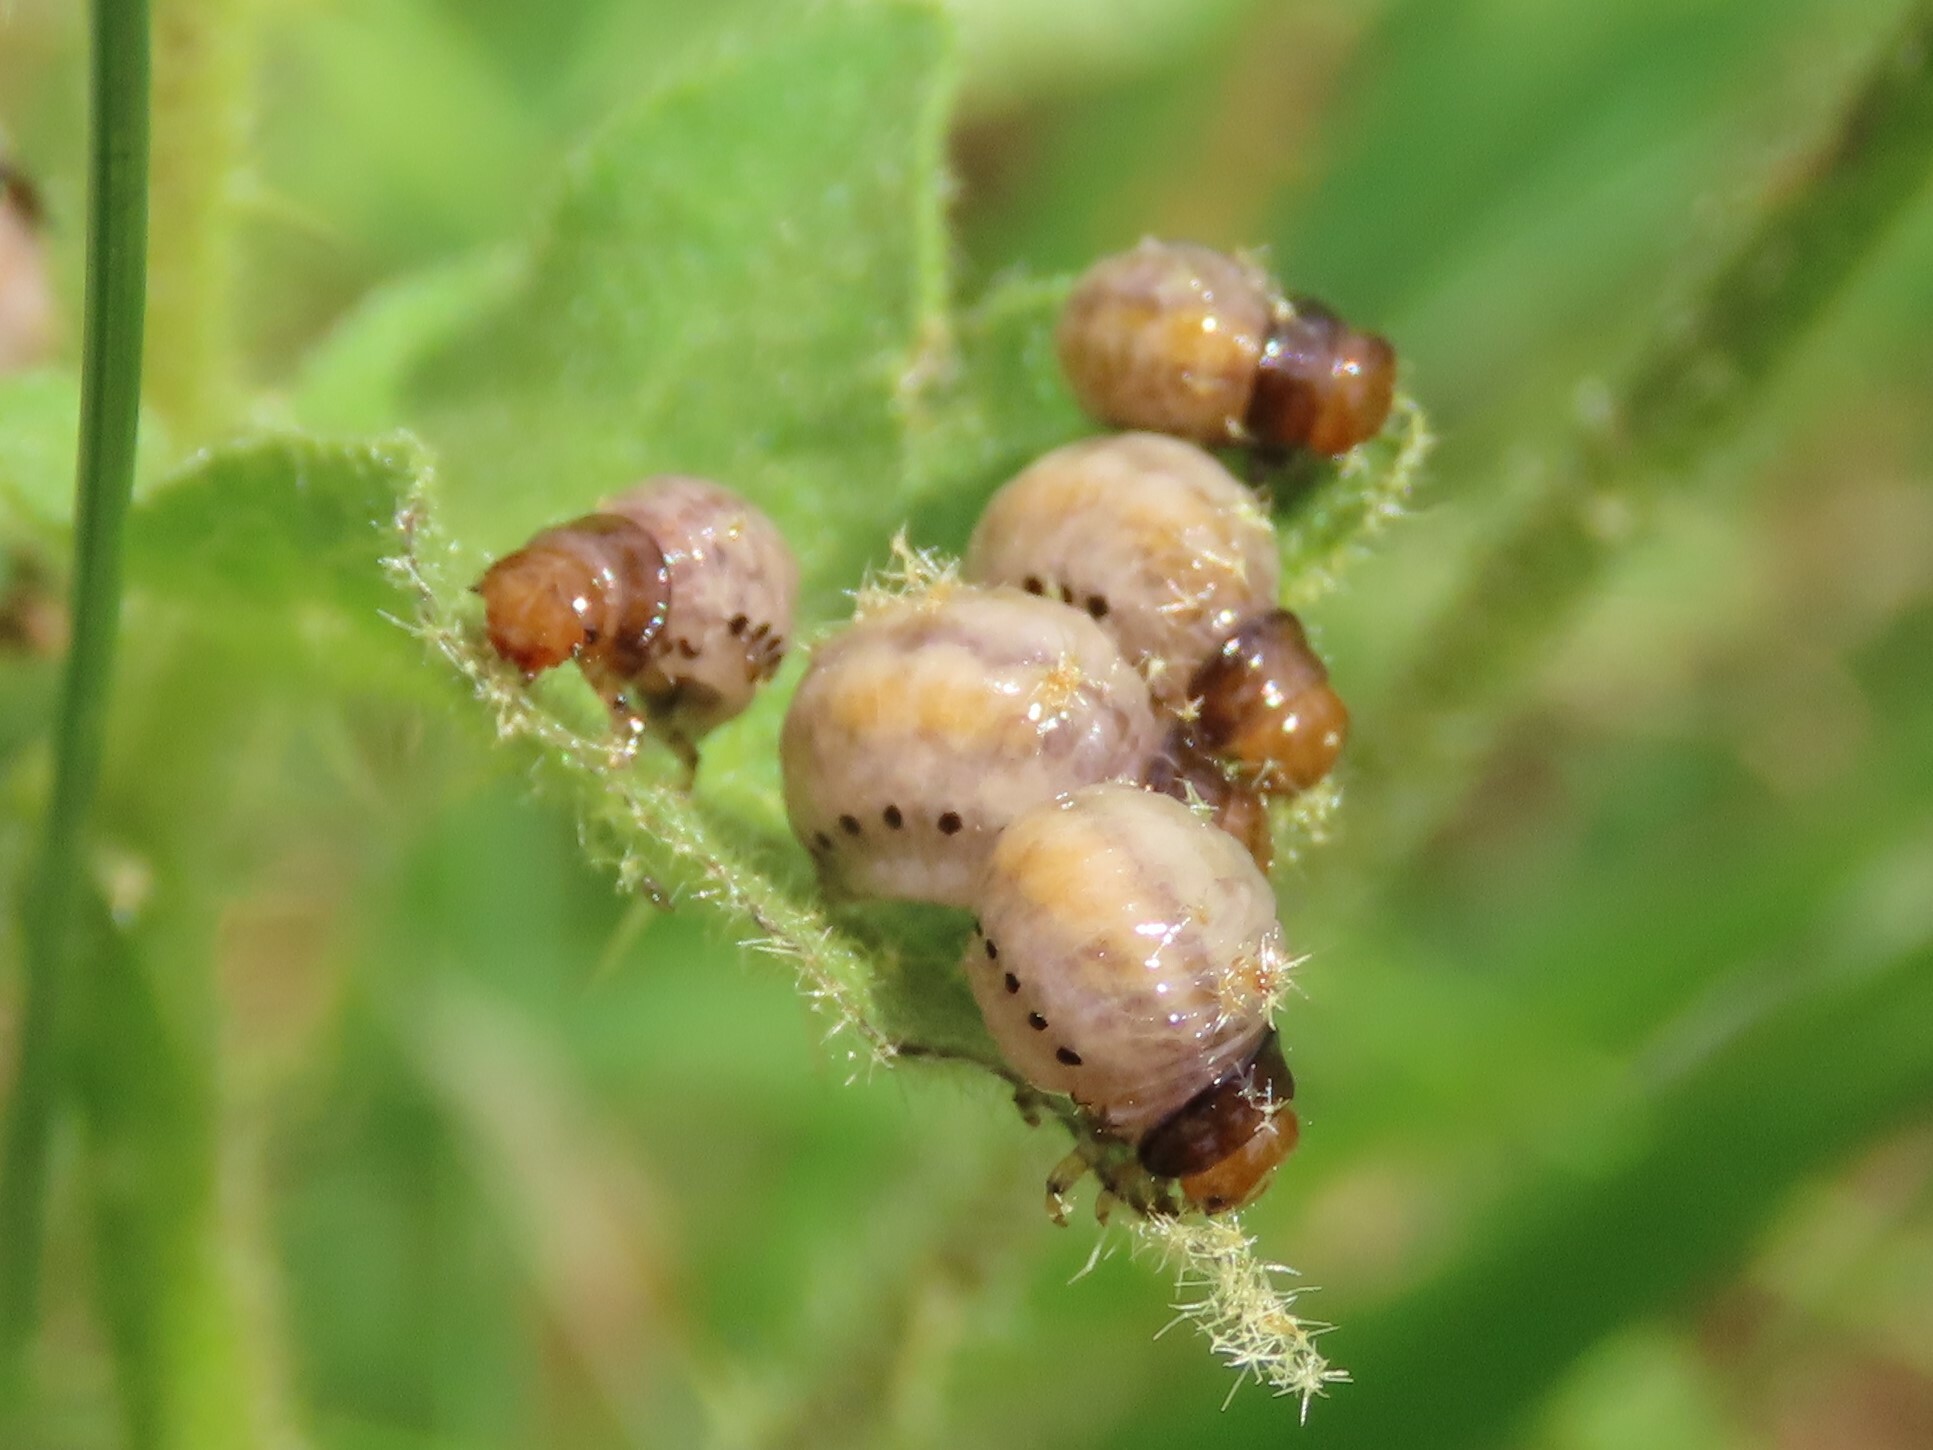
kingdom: Animalia
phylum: Arthropoda
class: Insecta
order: Coleoptera
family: Chrysomelidae
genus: Leptinotarsa
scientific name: Leptinotarsa juncta
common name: False potato beetle
